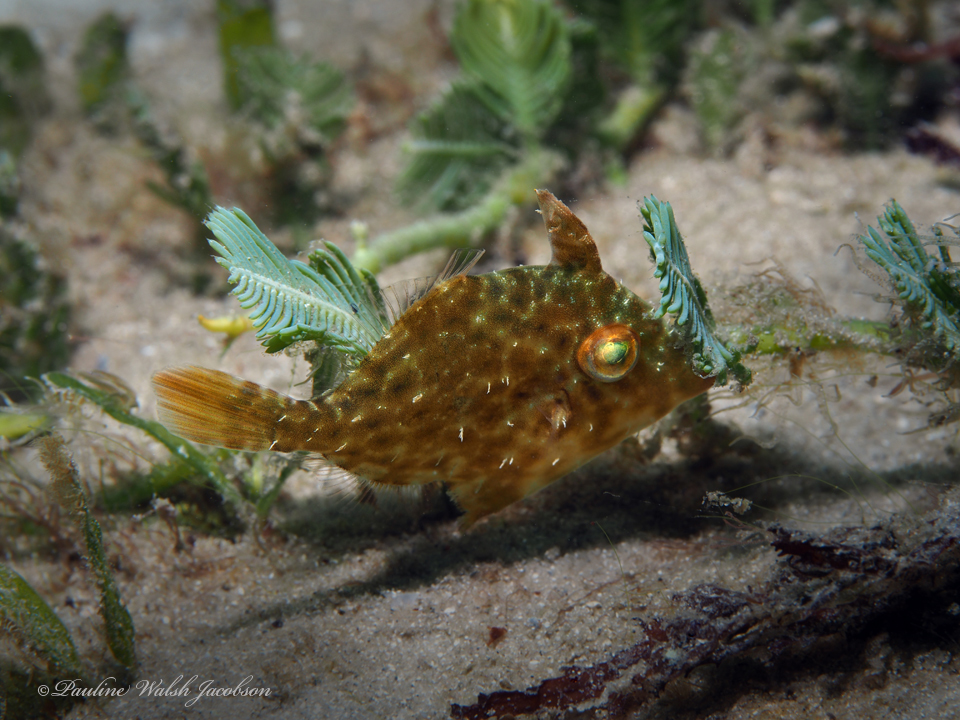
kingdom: Animalia
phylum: Chordata
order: Tetraodontiformes
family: Monacanthidae
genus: Stephanolepis
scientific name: Stephanolepis hispidus
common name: Planehead filefish
